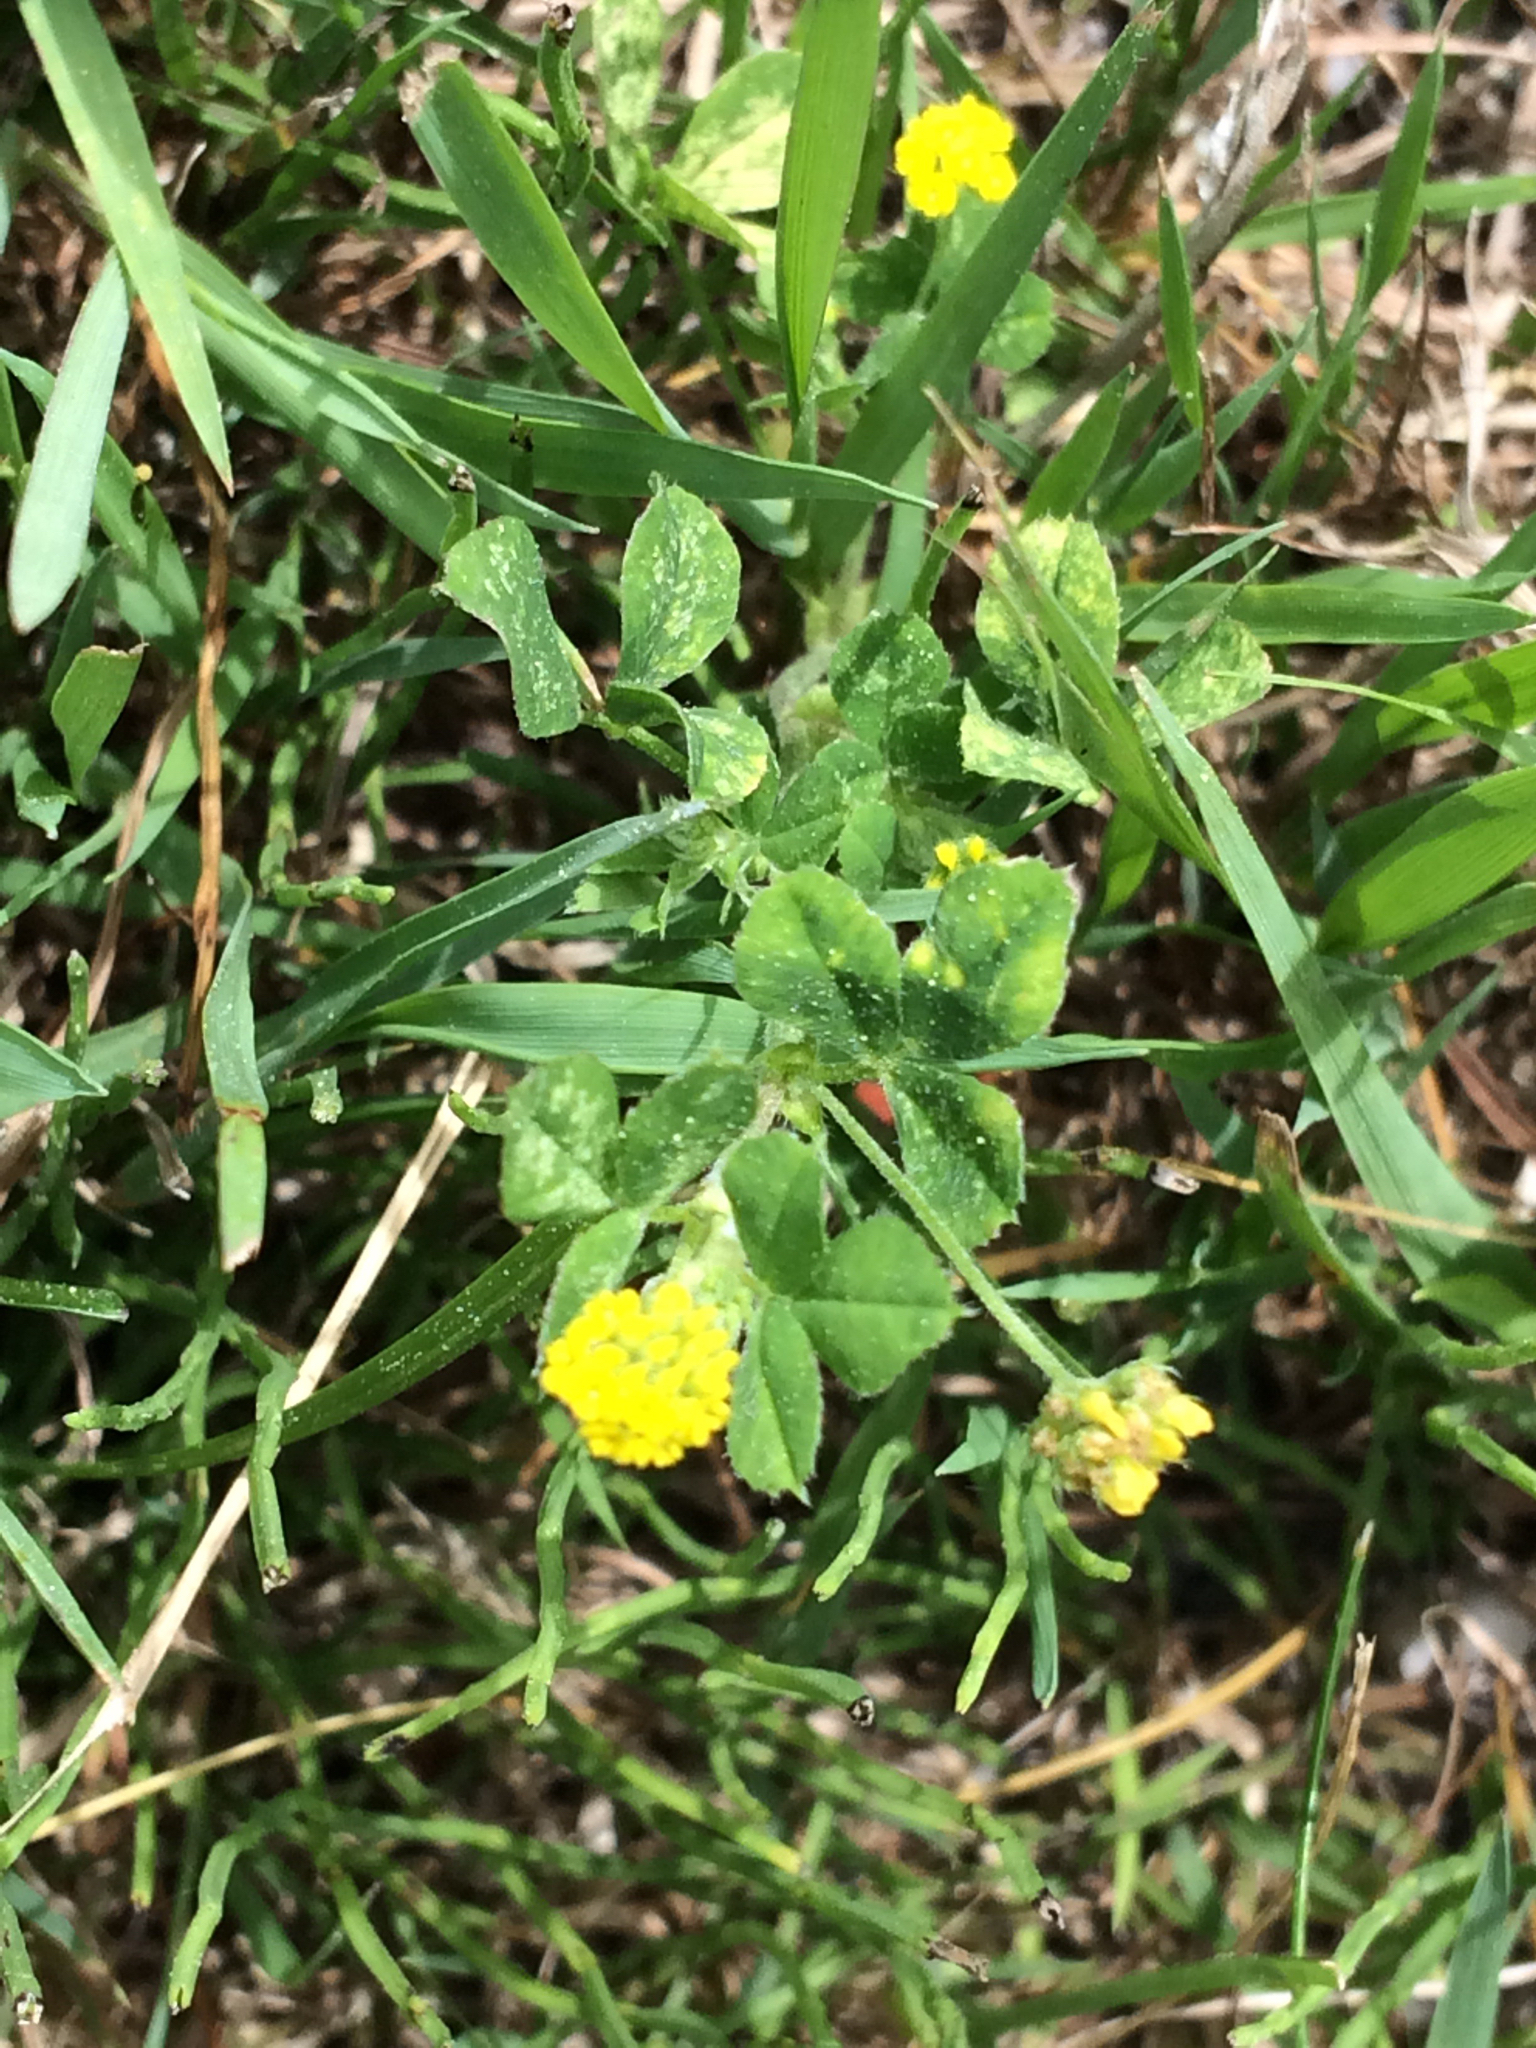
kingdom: Plantae
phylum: Tracheophyta
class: Magnoliopsida
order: Fabales
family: Fabaceae
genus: Medicago
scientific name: Medicago lupulina
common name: Black medick
